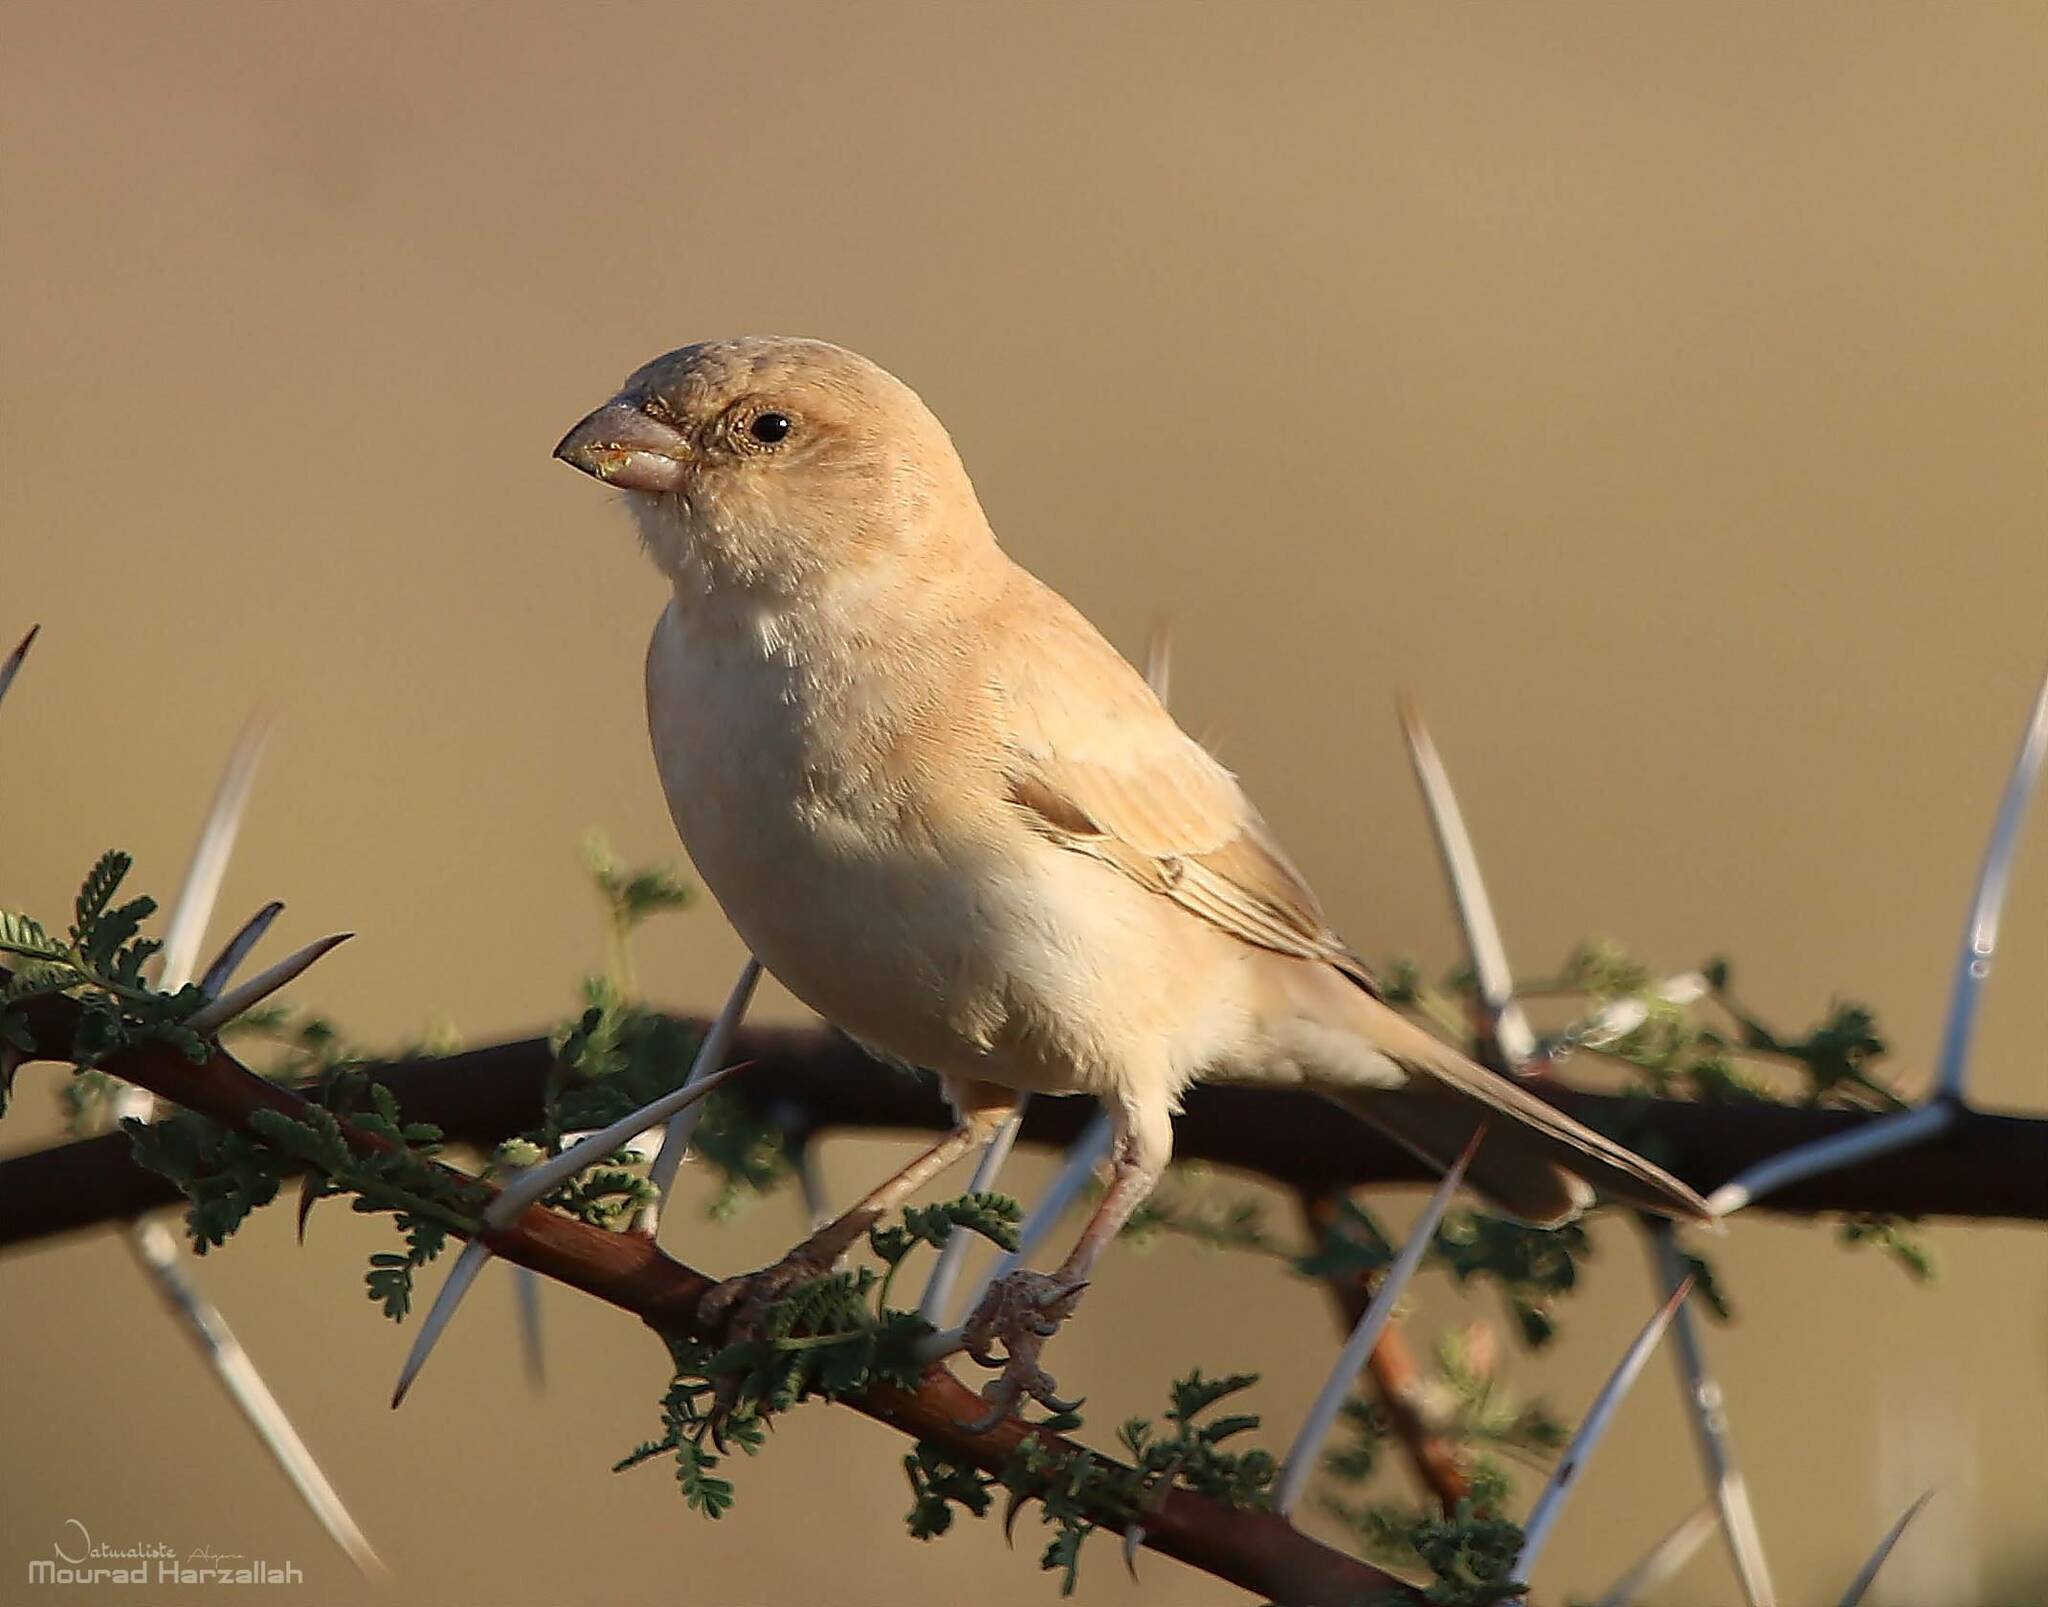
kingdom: Animalia
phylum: Chordata
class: Aves
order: Passeriformes
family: Passeridae
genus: Passer
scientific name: Passer simplex
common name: Desert sparrow
